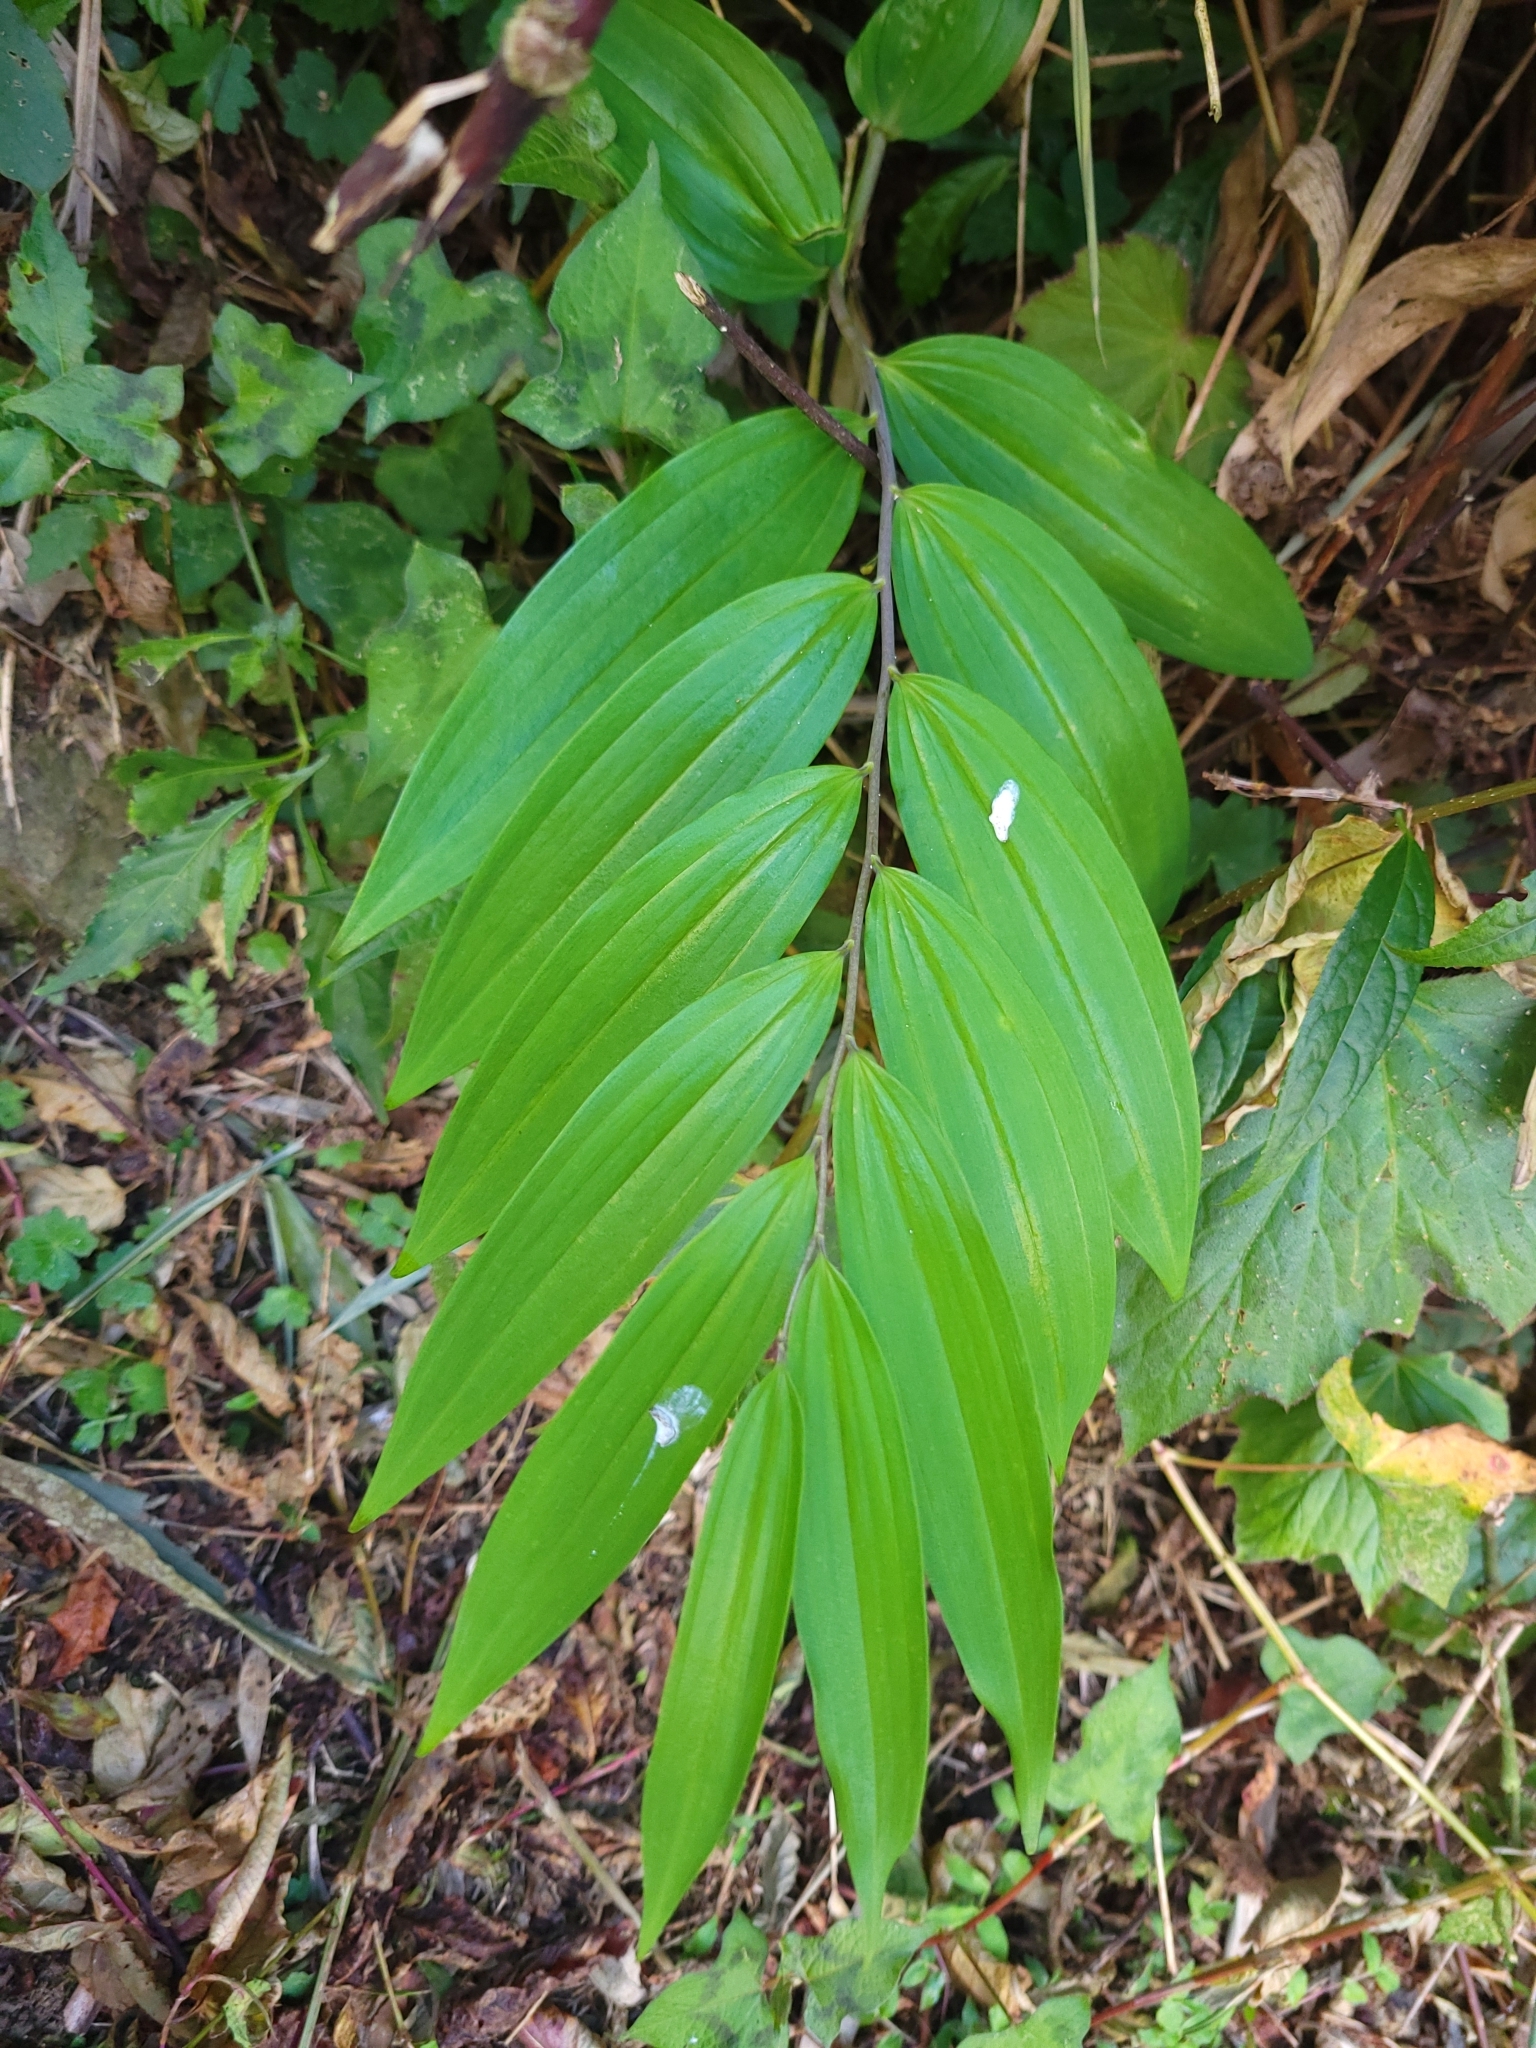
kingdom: Plantae
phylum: Tracheophyta
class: Liliopsida
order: Asparagales
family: Asparagaceae
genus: Polygonatum
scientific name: Polygonatum arisanense
